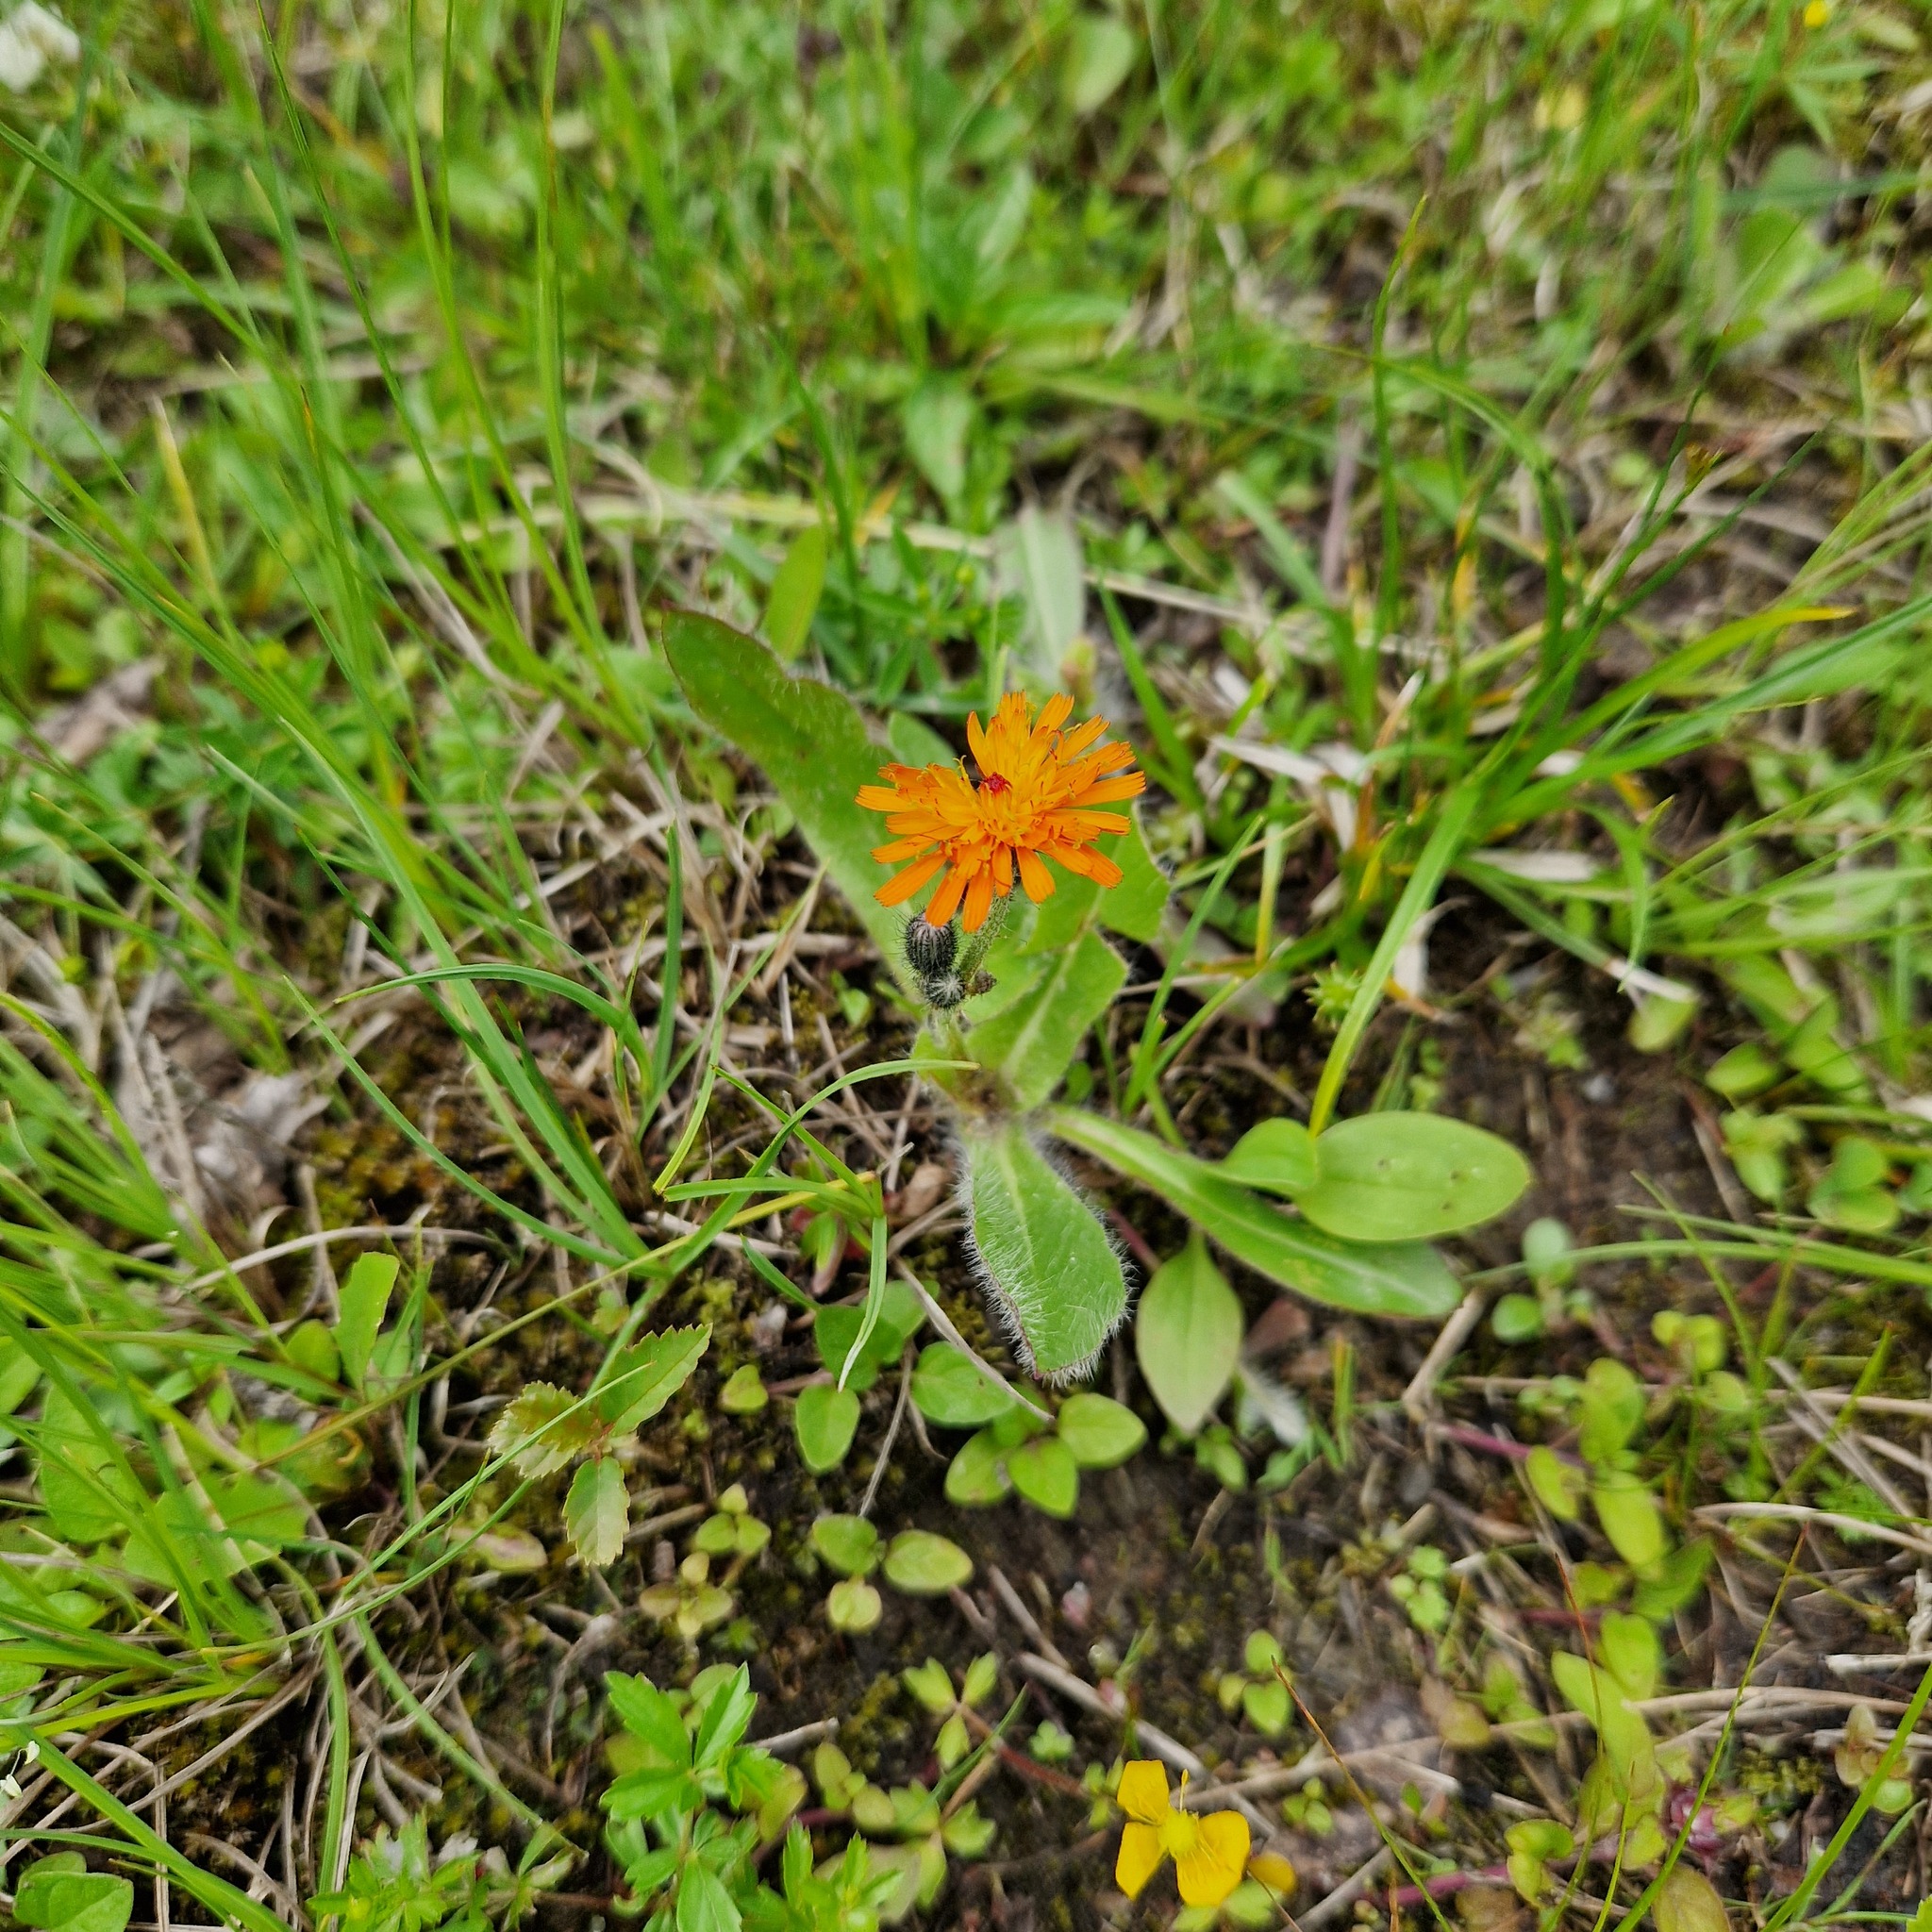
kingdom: Plantae
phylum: Tracheophyta
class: Magnoliopsida
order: Asterales
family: Asteraceae
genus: Pilosella
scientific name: Pilosella aurantiaca
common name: Fox-and-cubs
